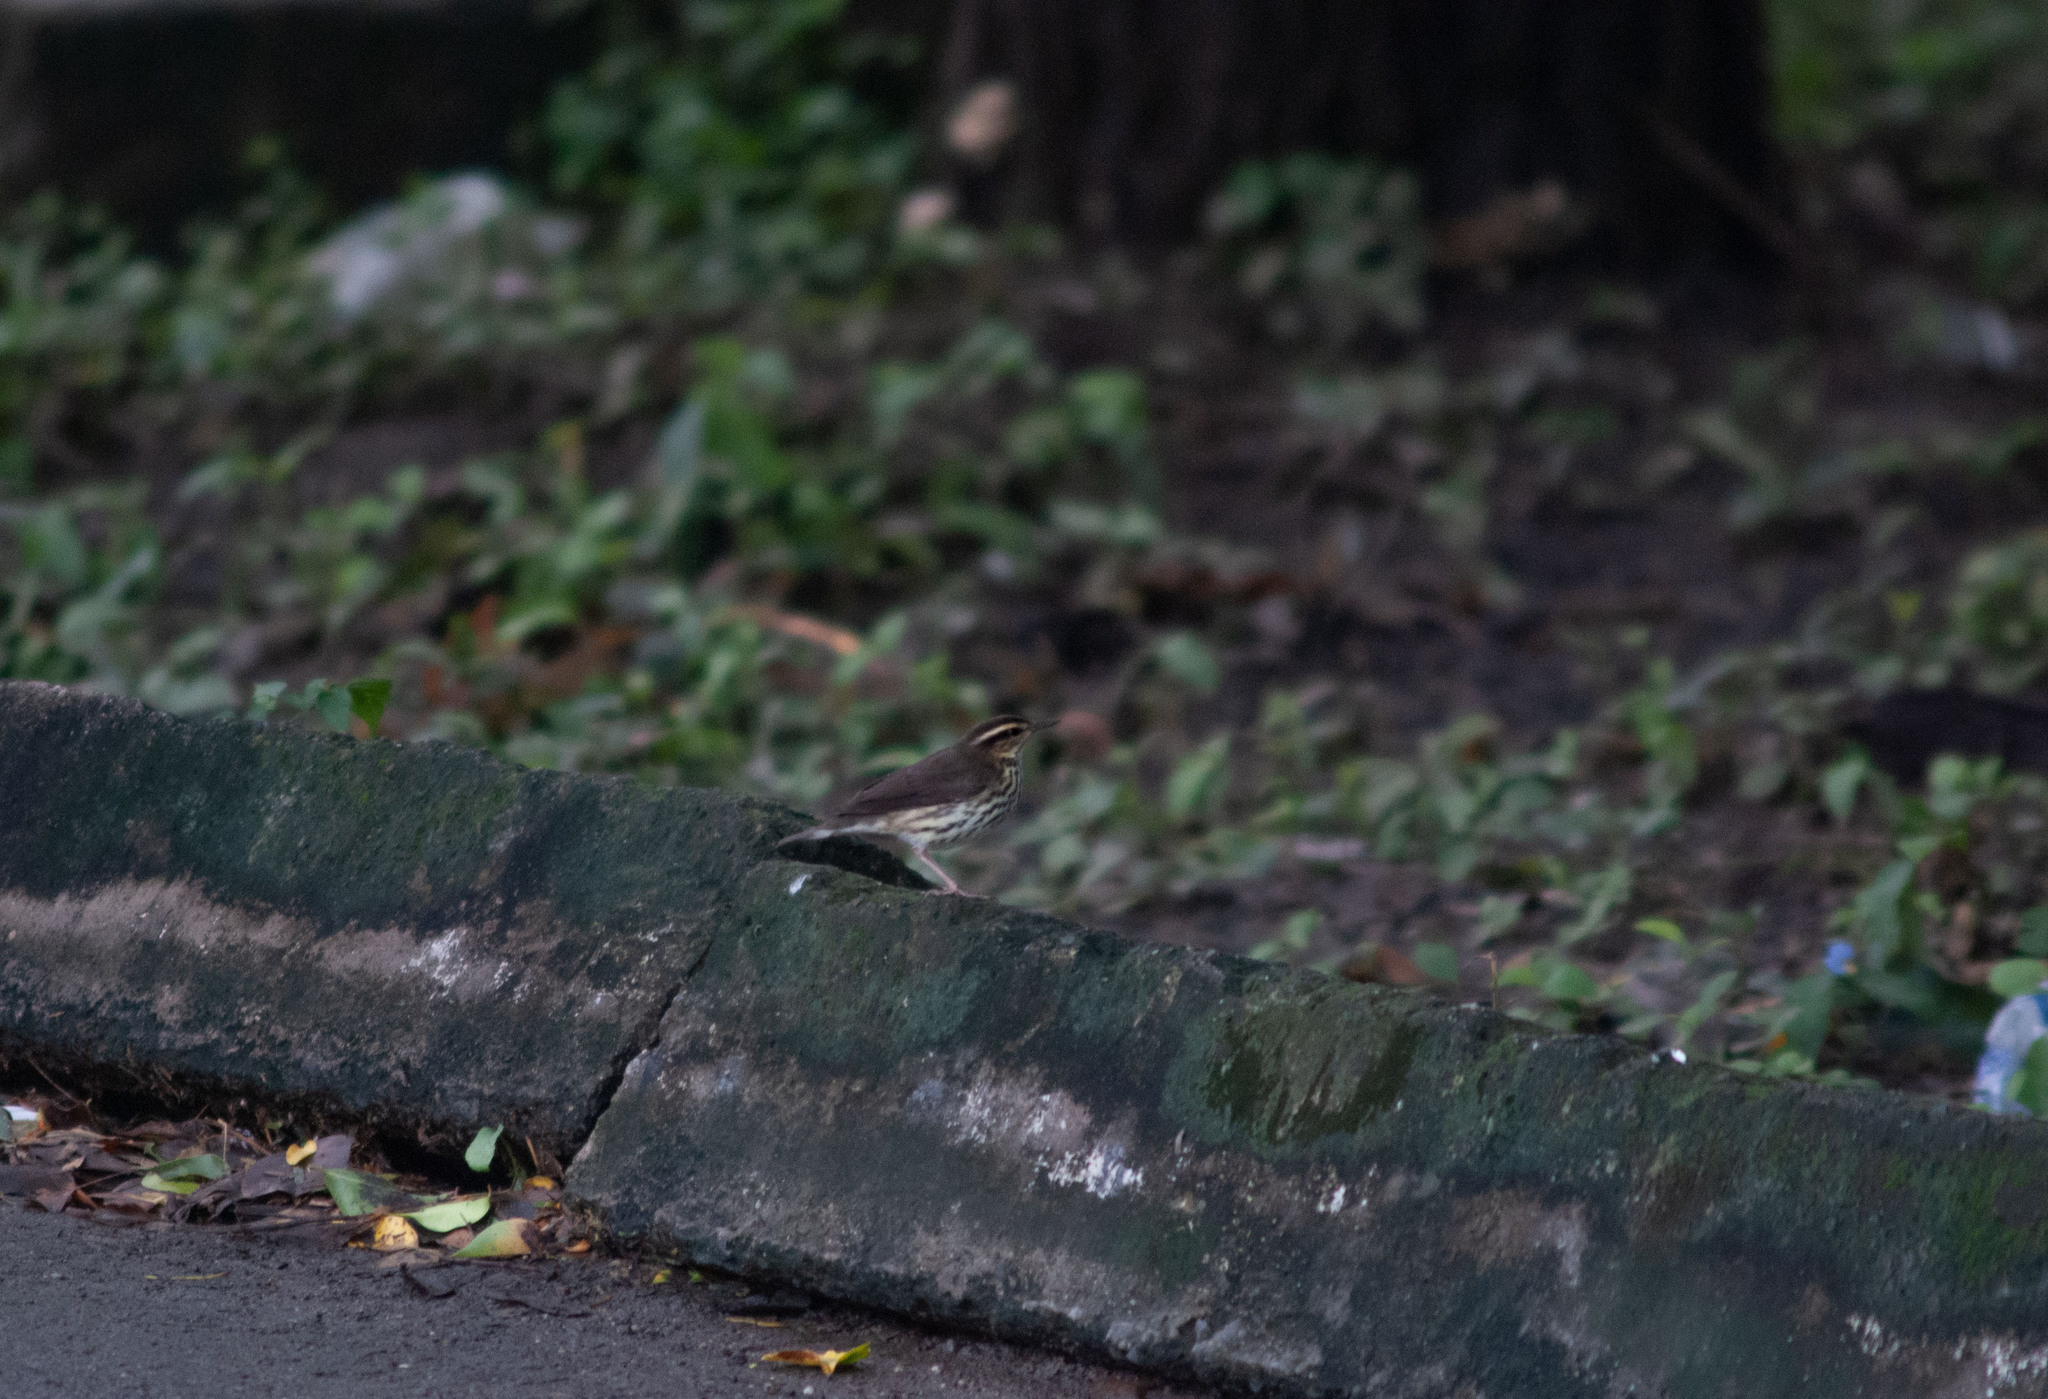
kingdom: Animalia
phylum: Chordata
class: Aves
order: Passeriformes
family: Parulidae
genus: Parkesia
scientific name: Parkesia noveboracensis
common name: Northern waterthrush
